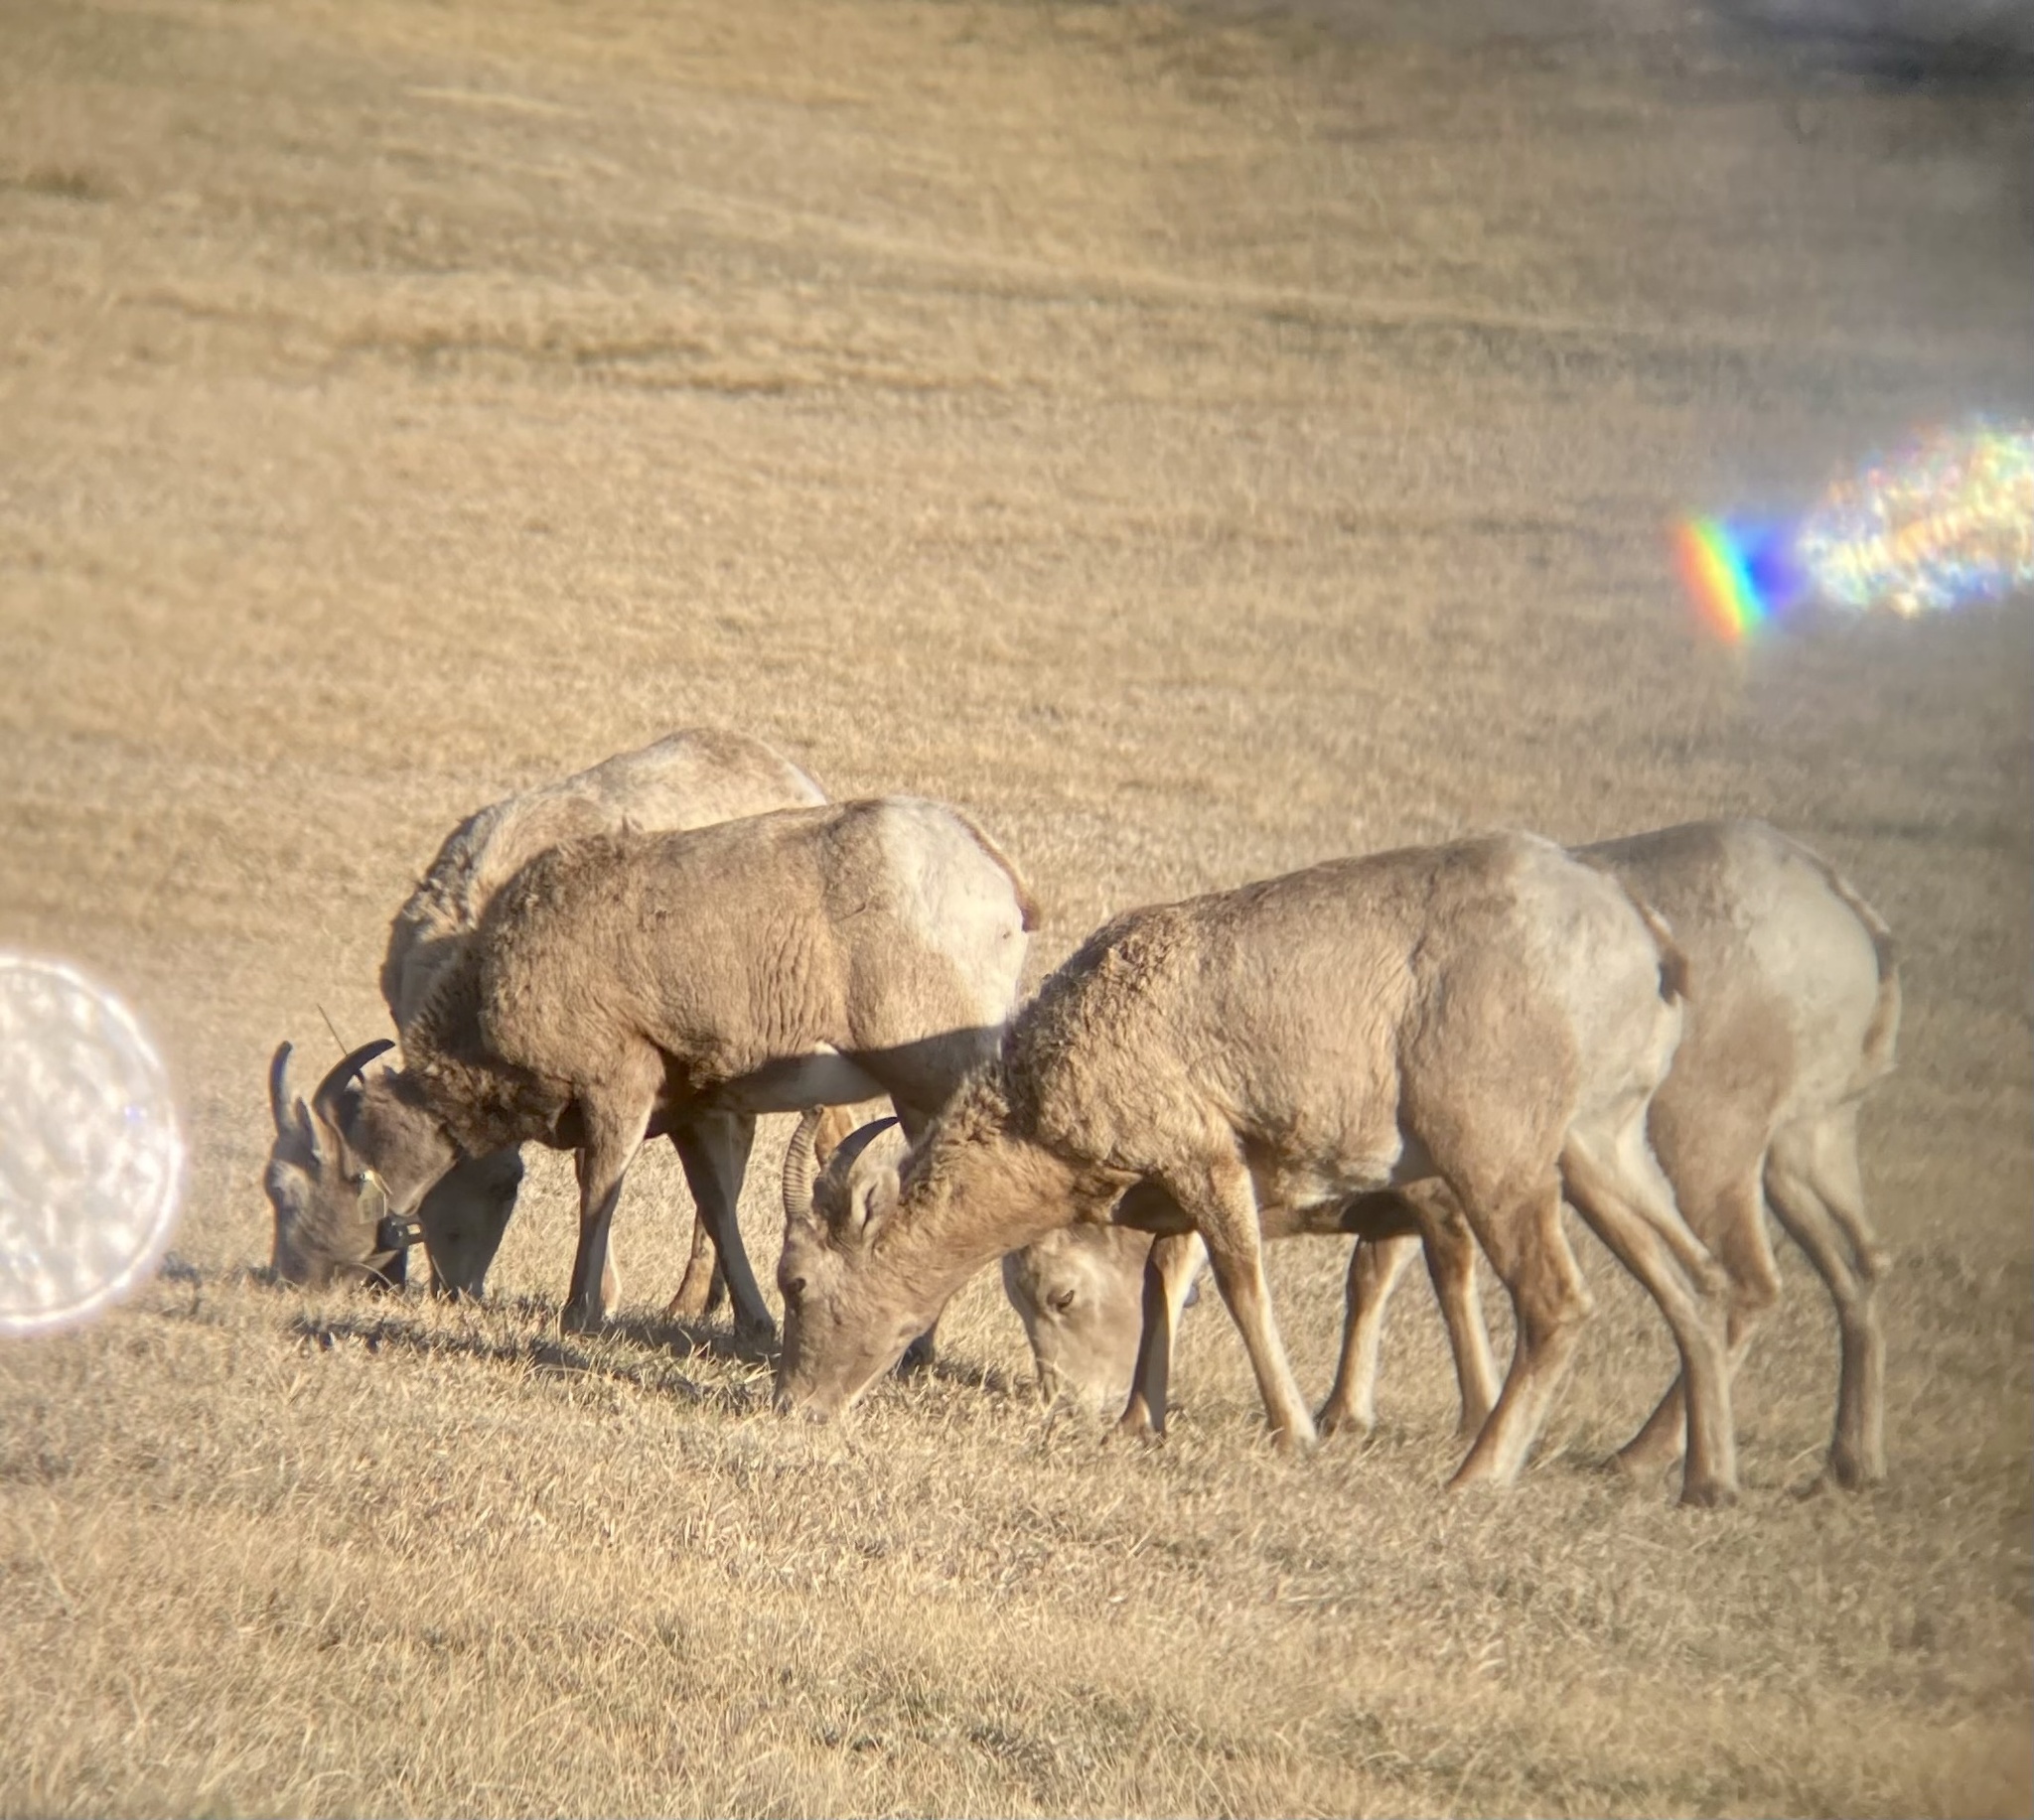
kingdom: Animalia
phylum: Chordata
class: Mammalia
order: Artiodactyla
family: Bovidae
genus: Ovis
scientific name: Ovis canadensis
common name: Bighorn sheep
